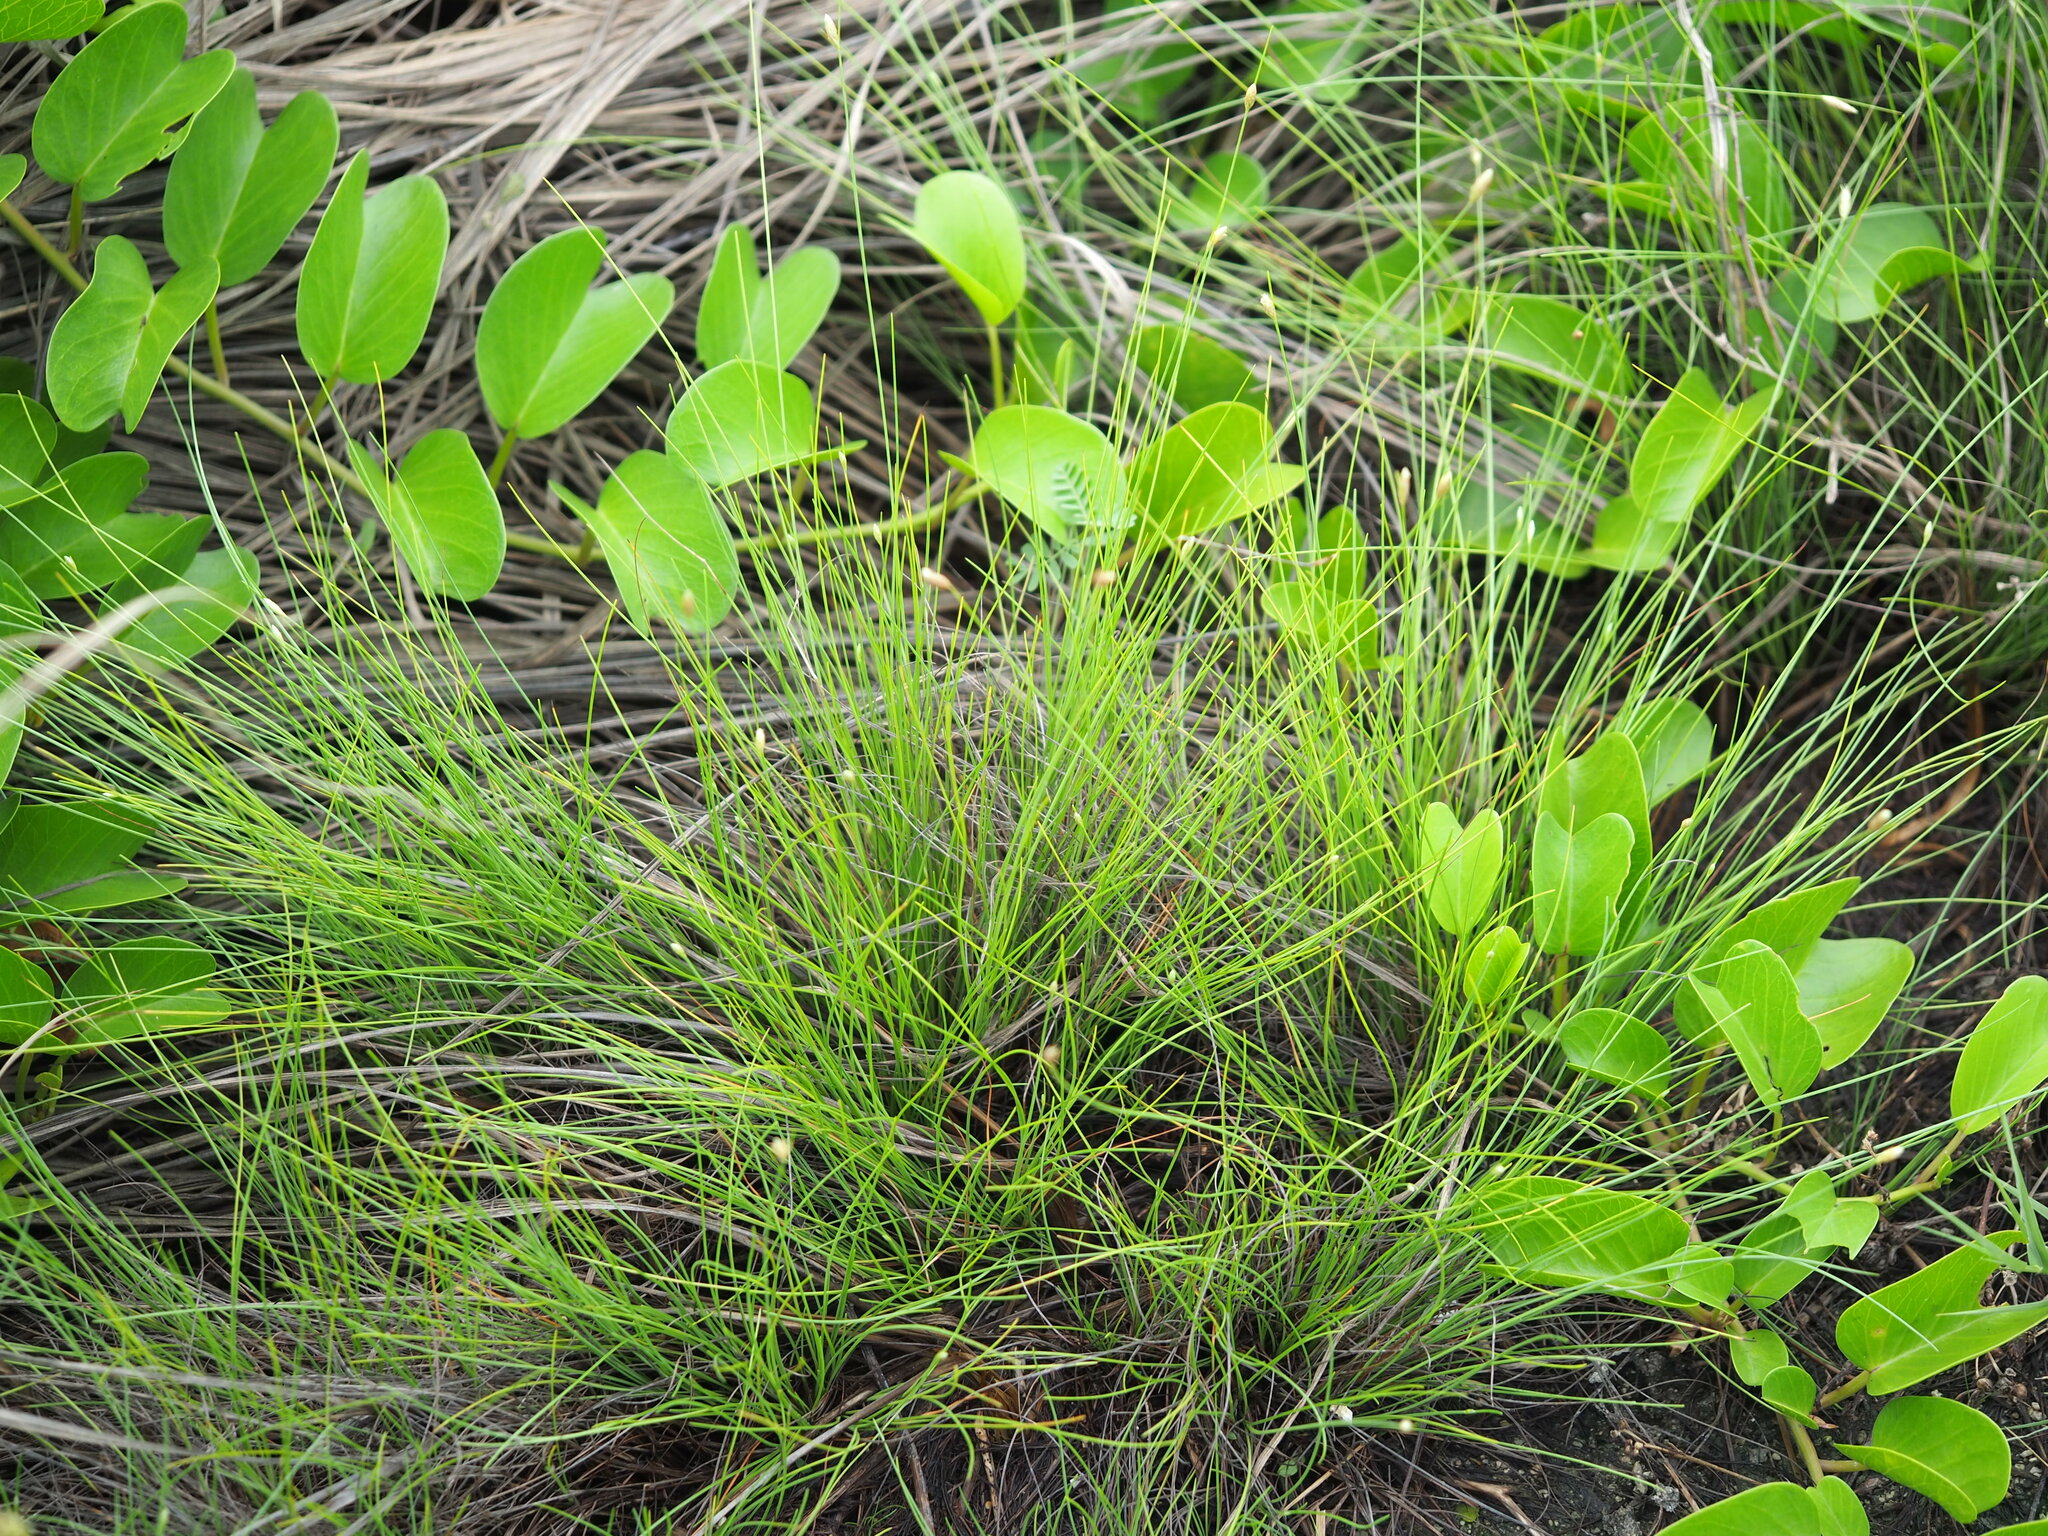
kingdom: Plantae
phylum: Tracheophyta
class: Liliopsida
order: Poales
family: Cyperaceae
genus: Fimbristylis
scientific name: Fimbristylis polytrichoides
